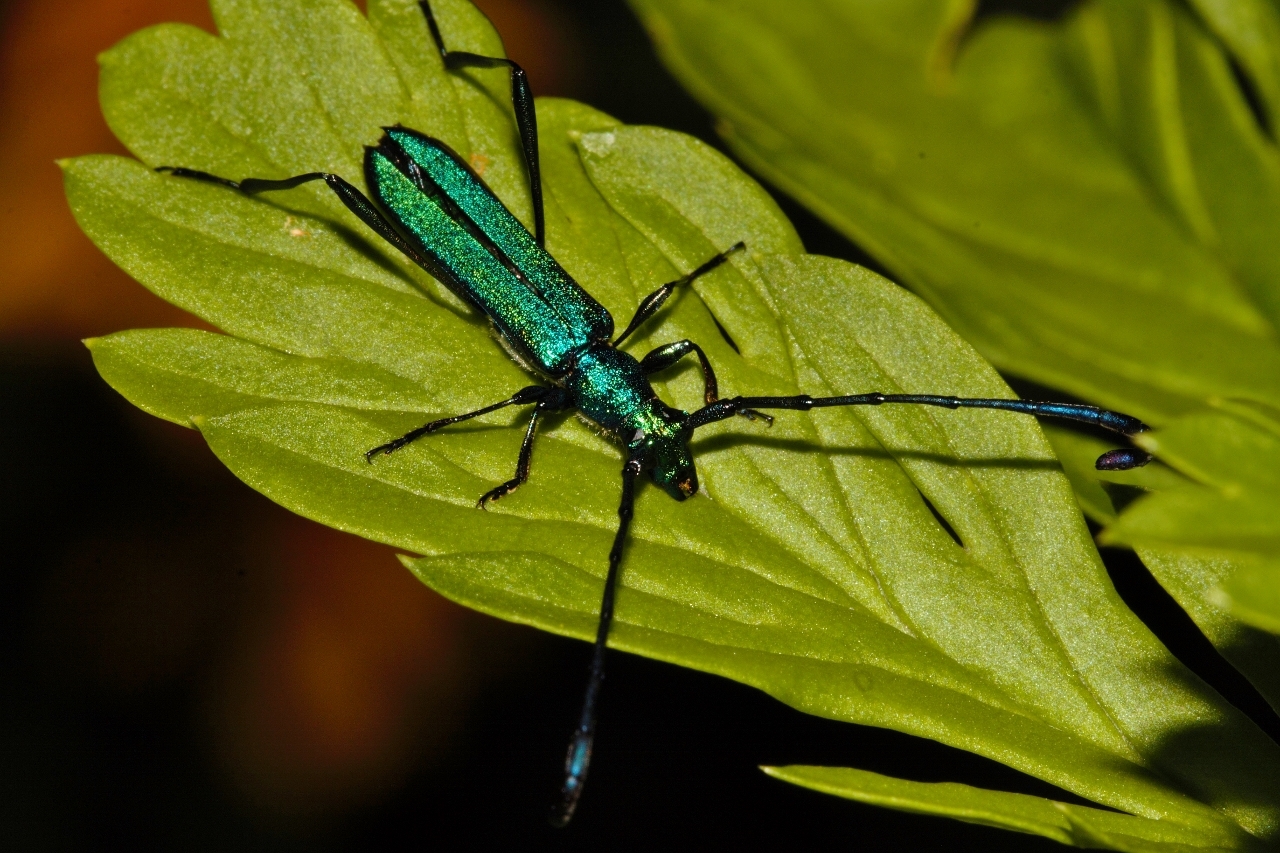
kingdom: Animalia
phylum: Arthropoda
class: Insecta
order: Coleoptera
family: Cerambycidae
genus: Hypocrites
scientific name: Hypocrites
